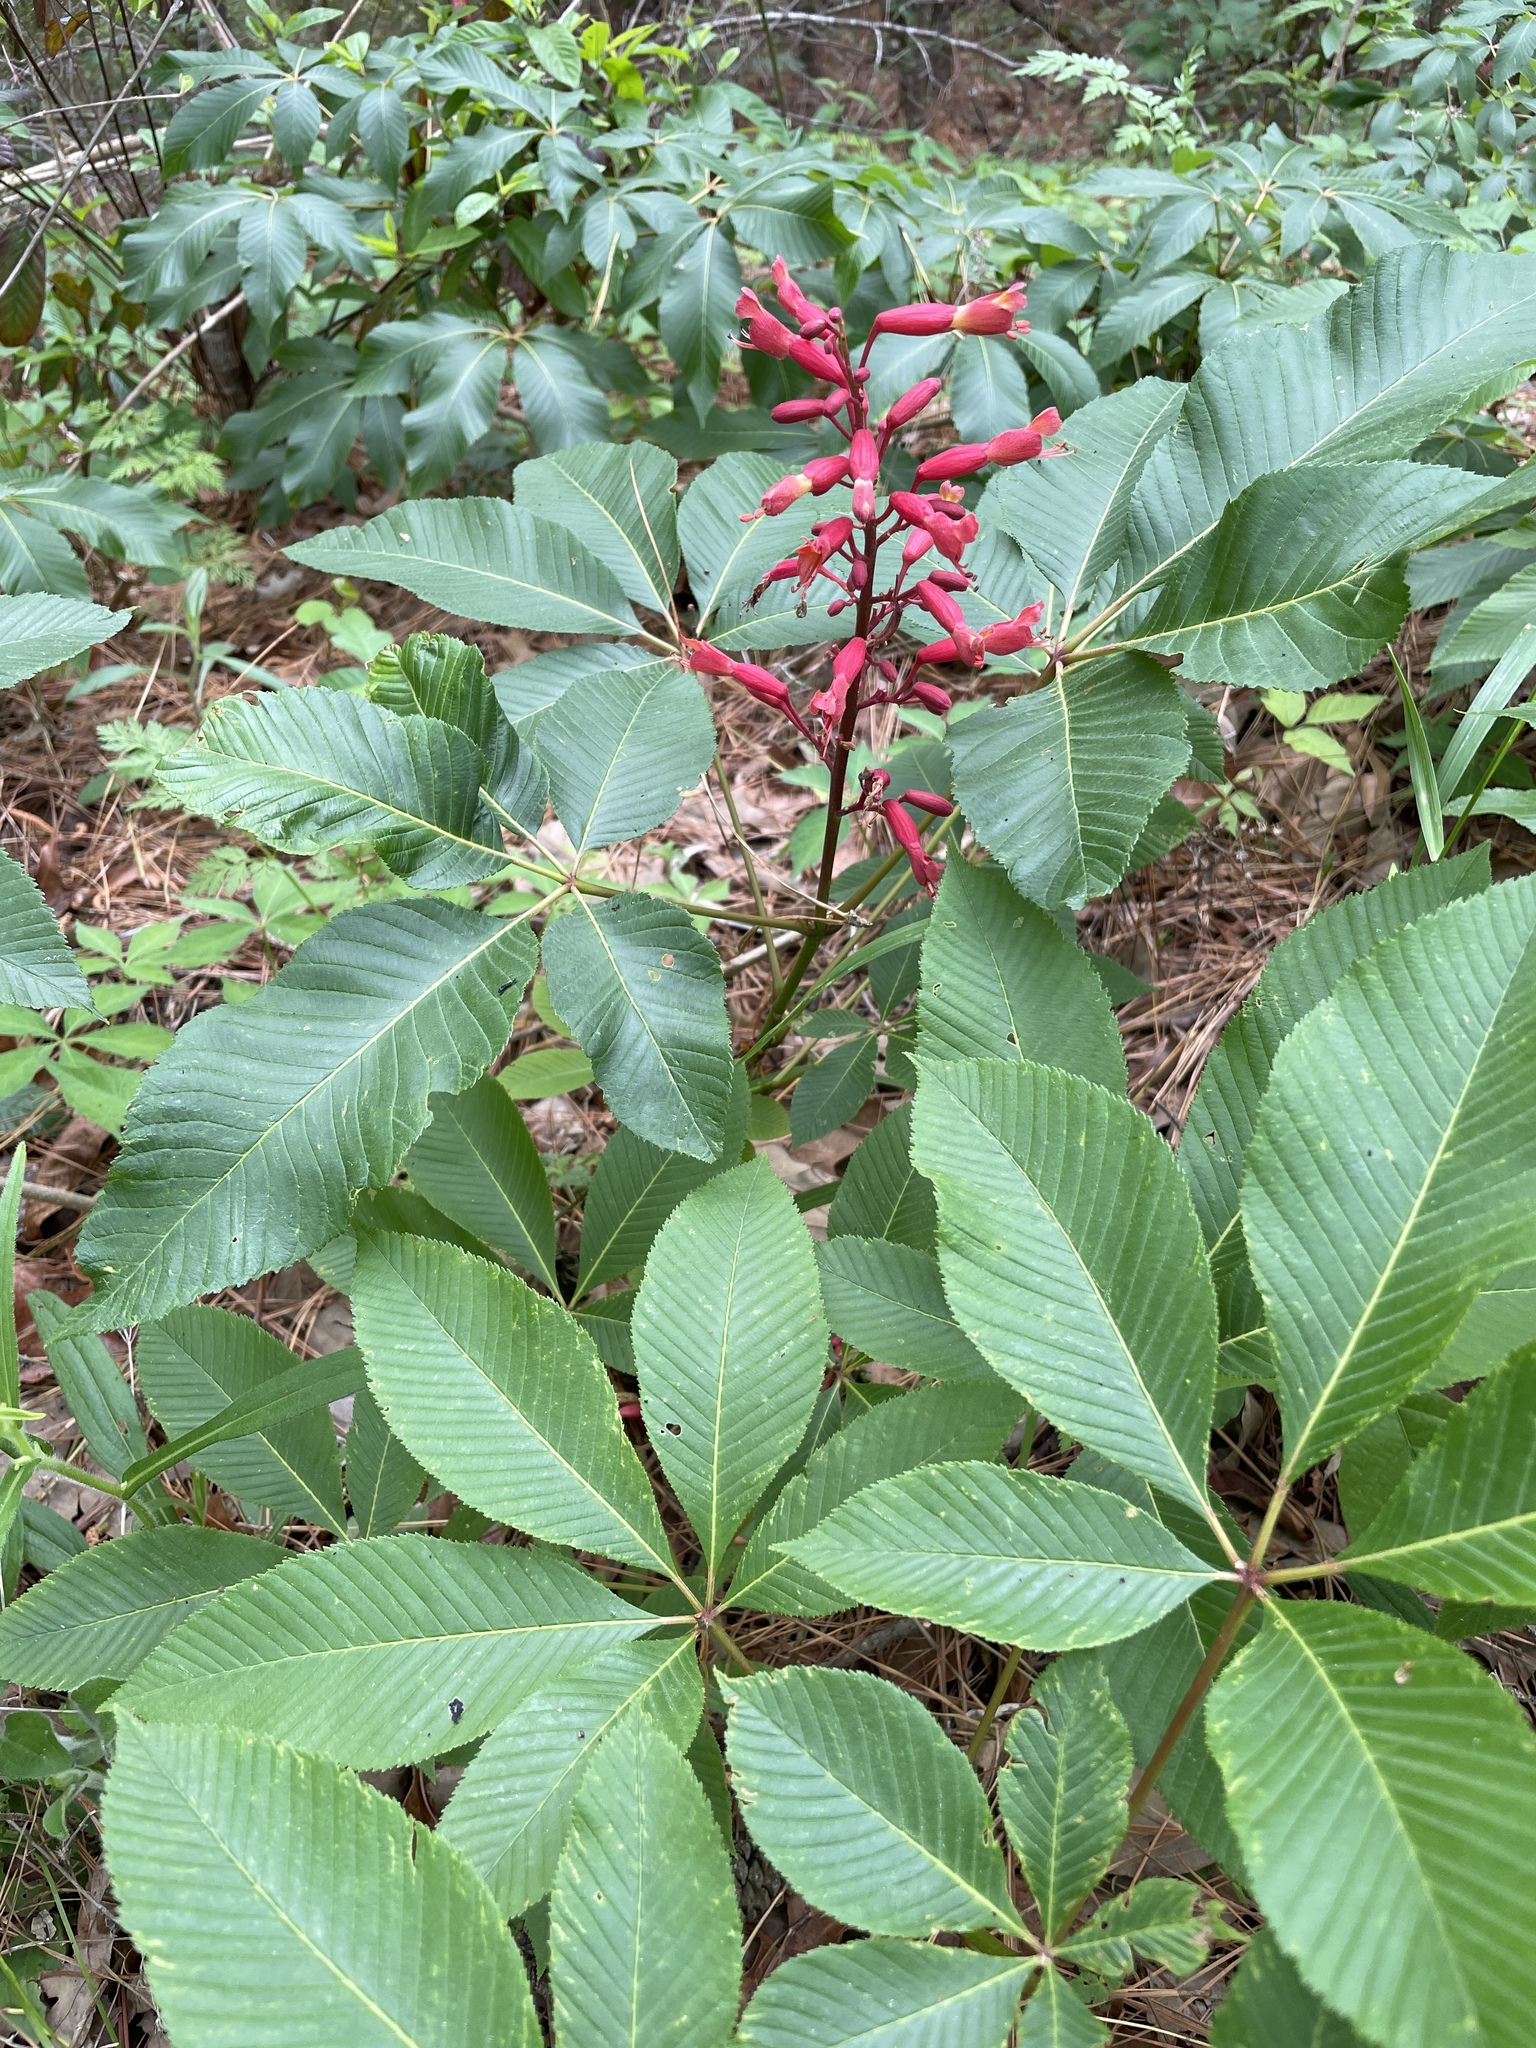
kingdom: Plantae
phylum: Tracheophyta
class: Magnoliopsida
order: Sapindales
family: Sapindaceae
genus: Aesculus
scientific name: Aesculus pavia
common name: Red buckeye
